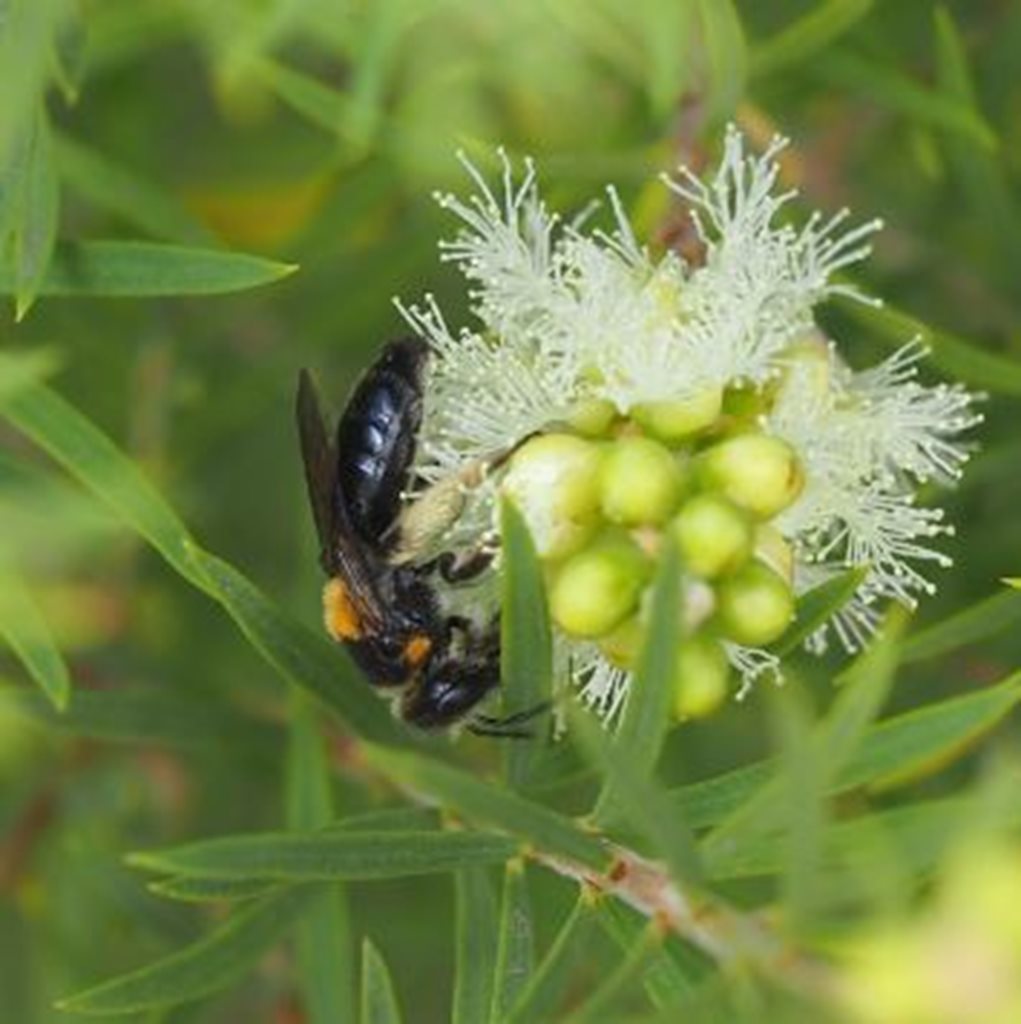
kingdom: Animalia
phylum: Arthropoda
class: Insecta
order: Hymenoptera
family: Colletidae
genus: Leioproctus
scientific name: Leioproctus flavomaculatus
